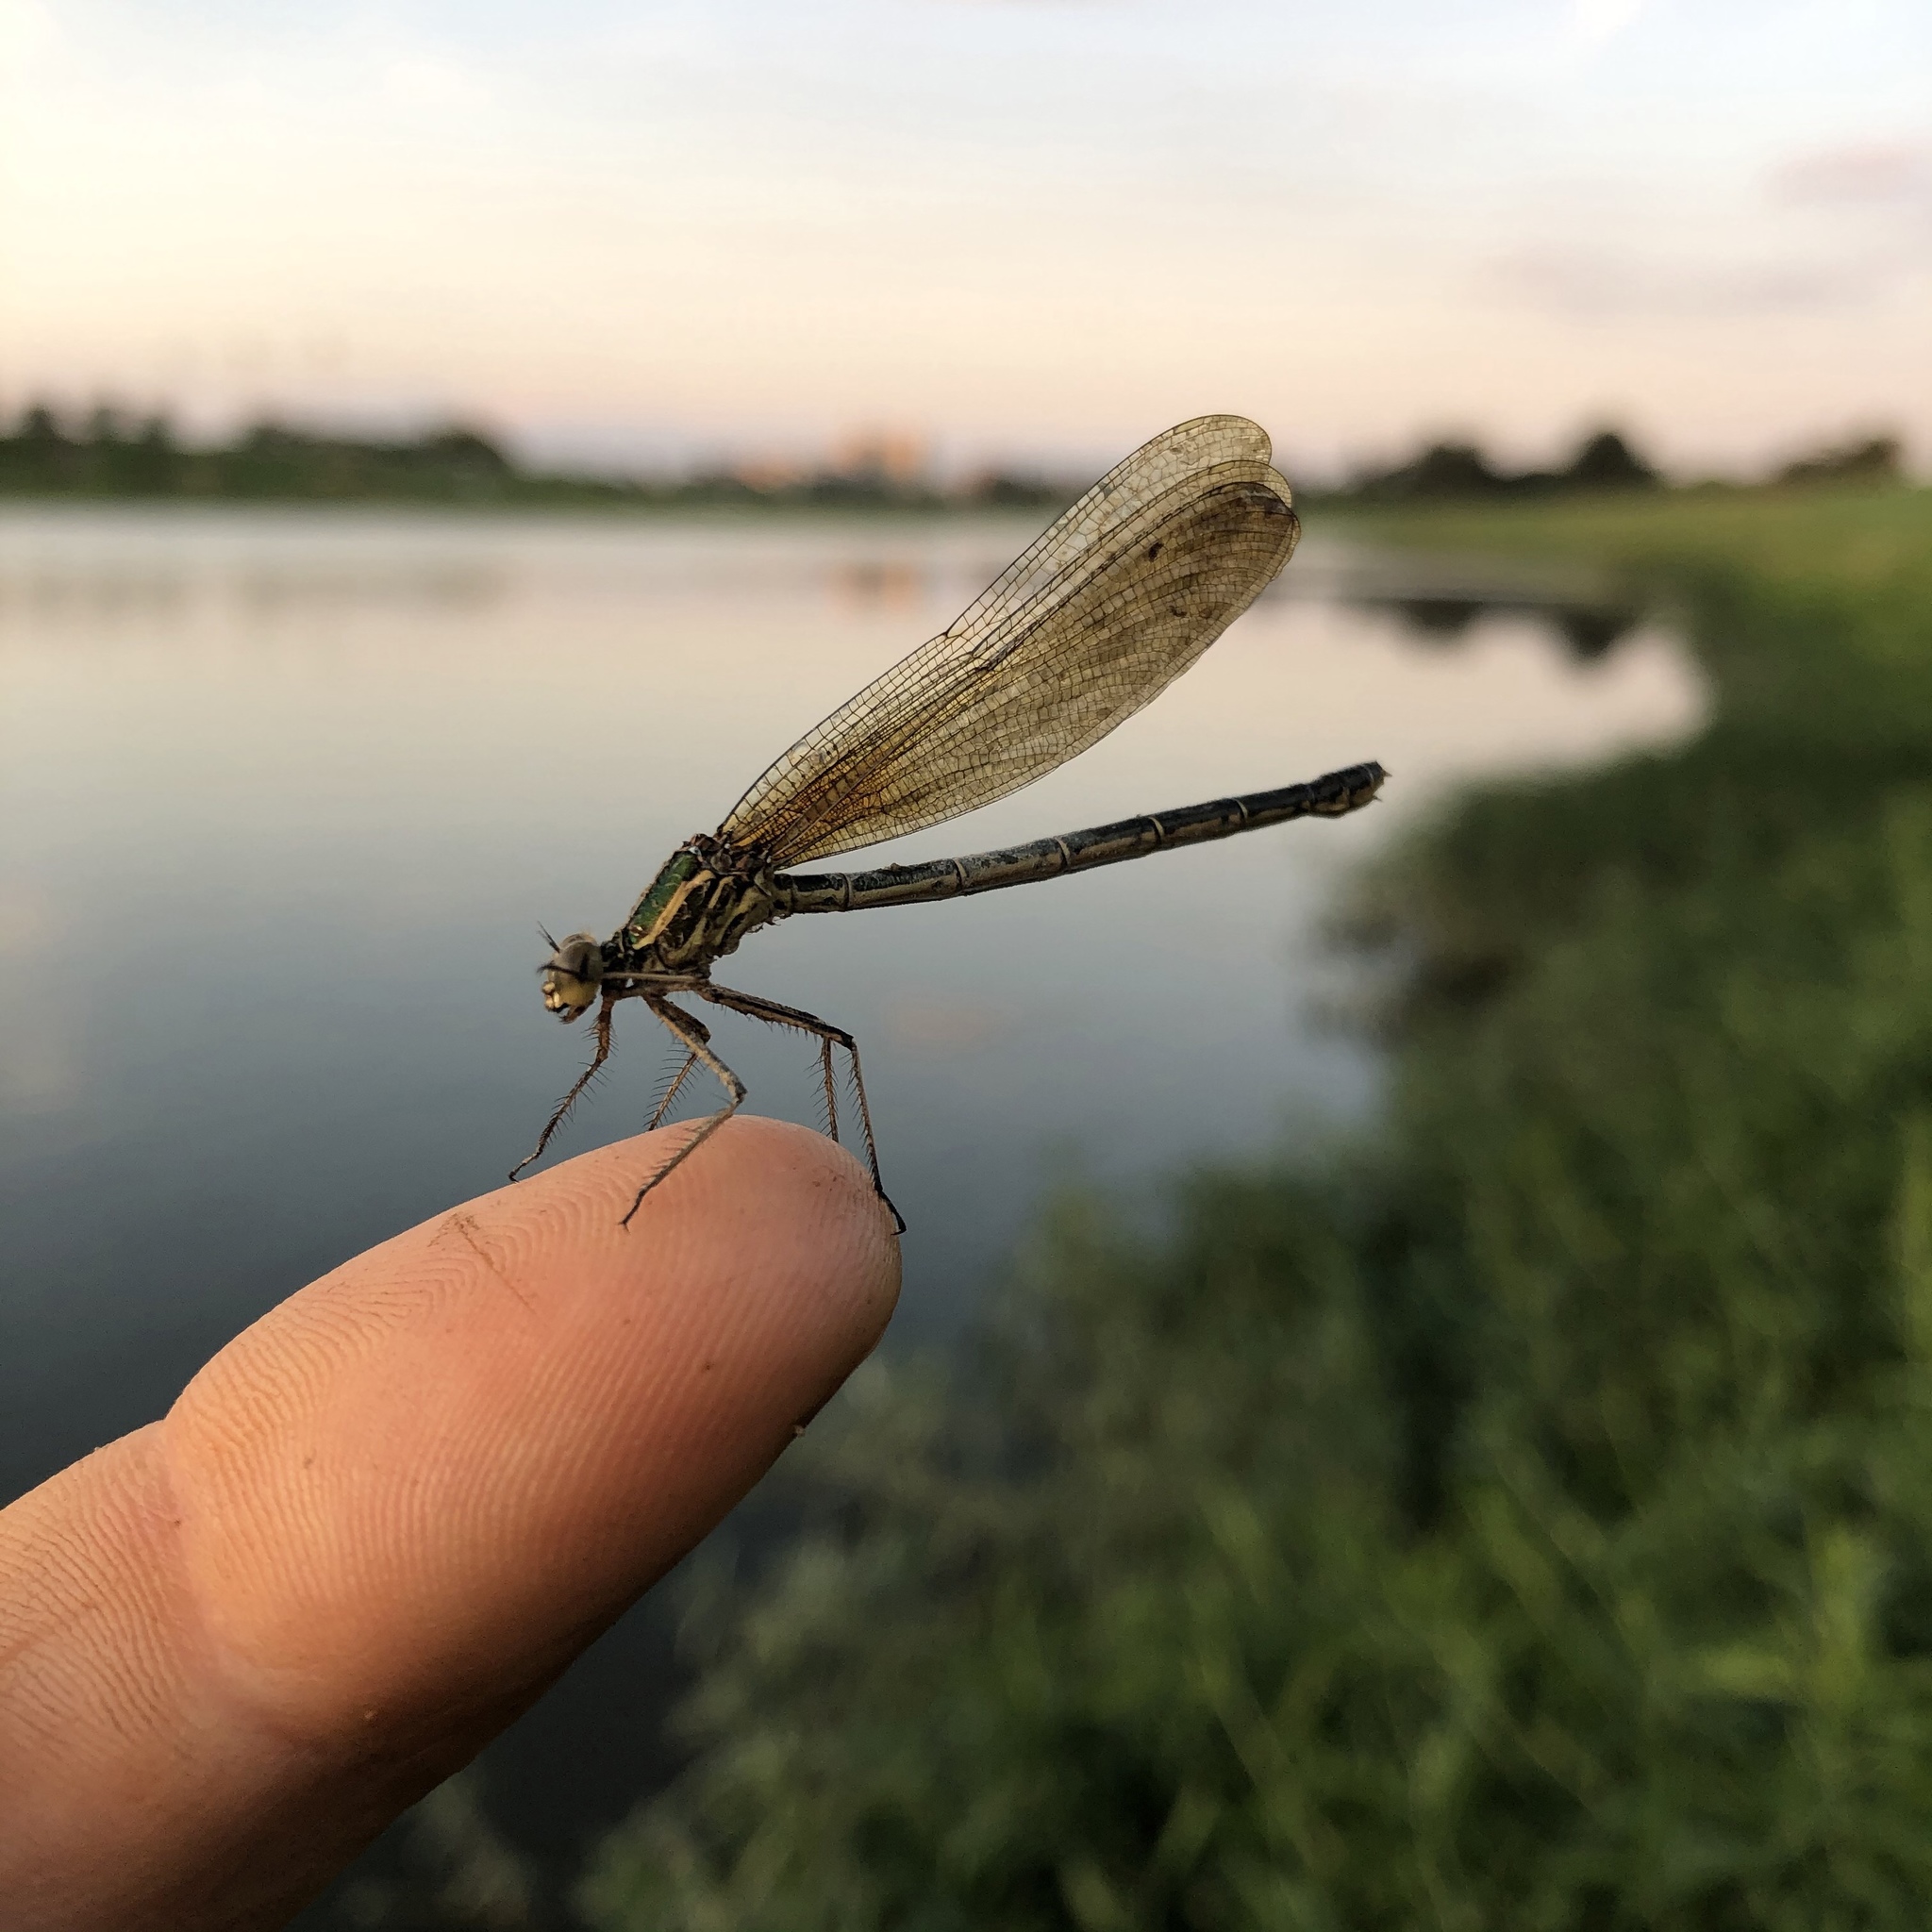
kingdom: Animalia
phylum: Arthropoda
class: Insecta
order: Odonata
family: Calopterygidae
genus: Hetaerina
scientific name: Hetaerina americana
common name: American rubyspot
